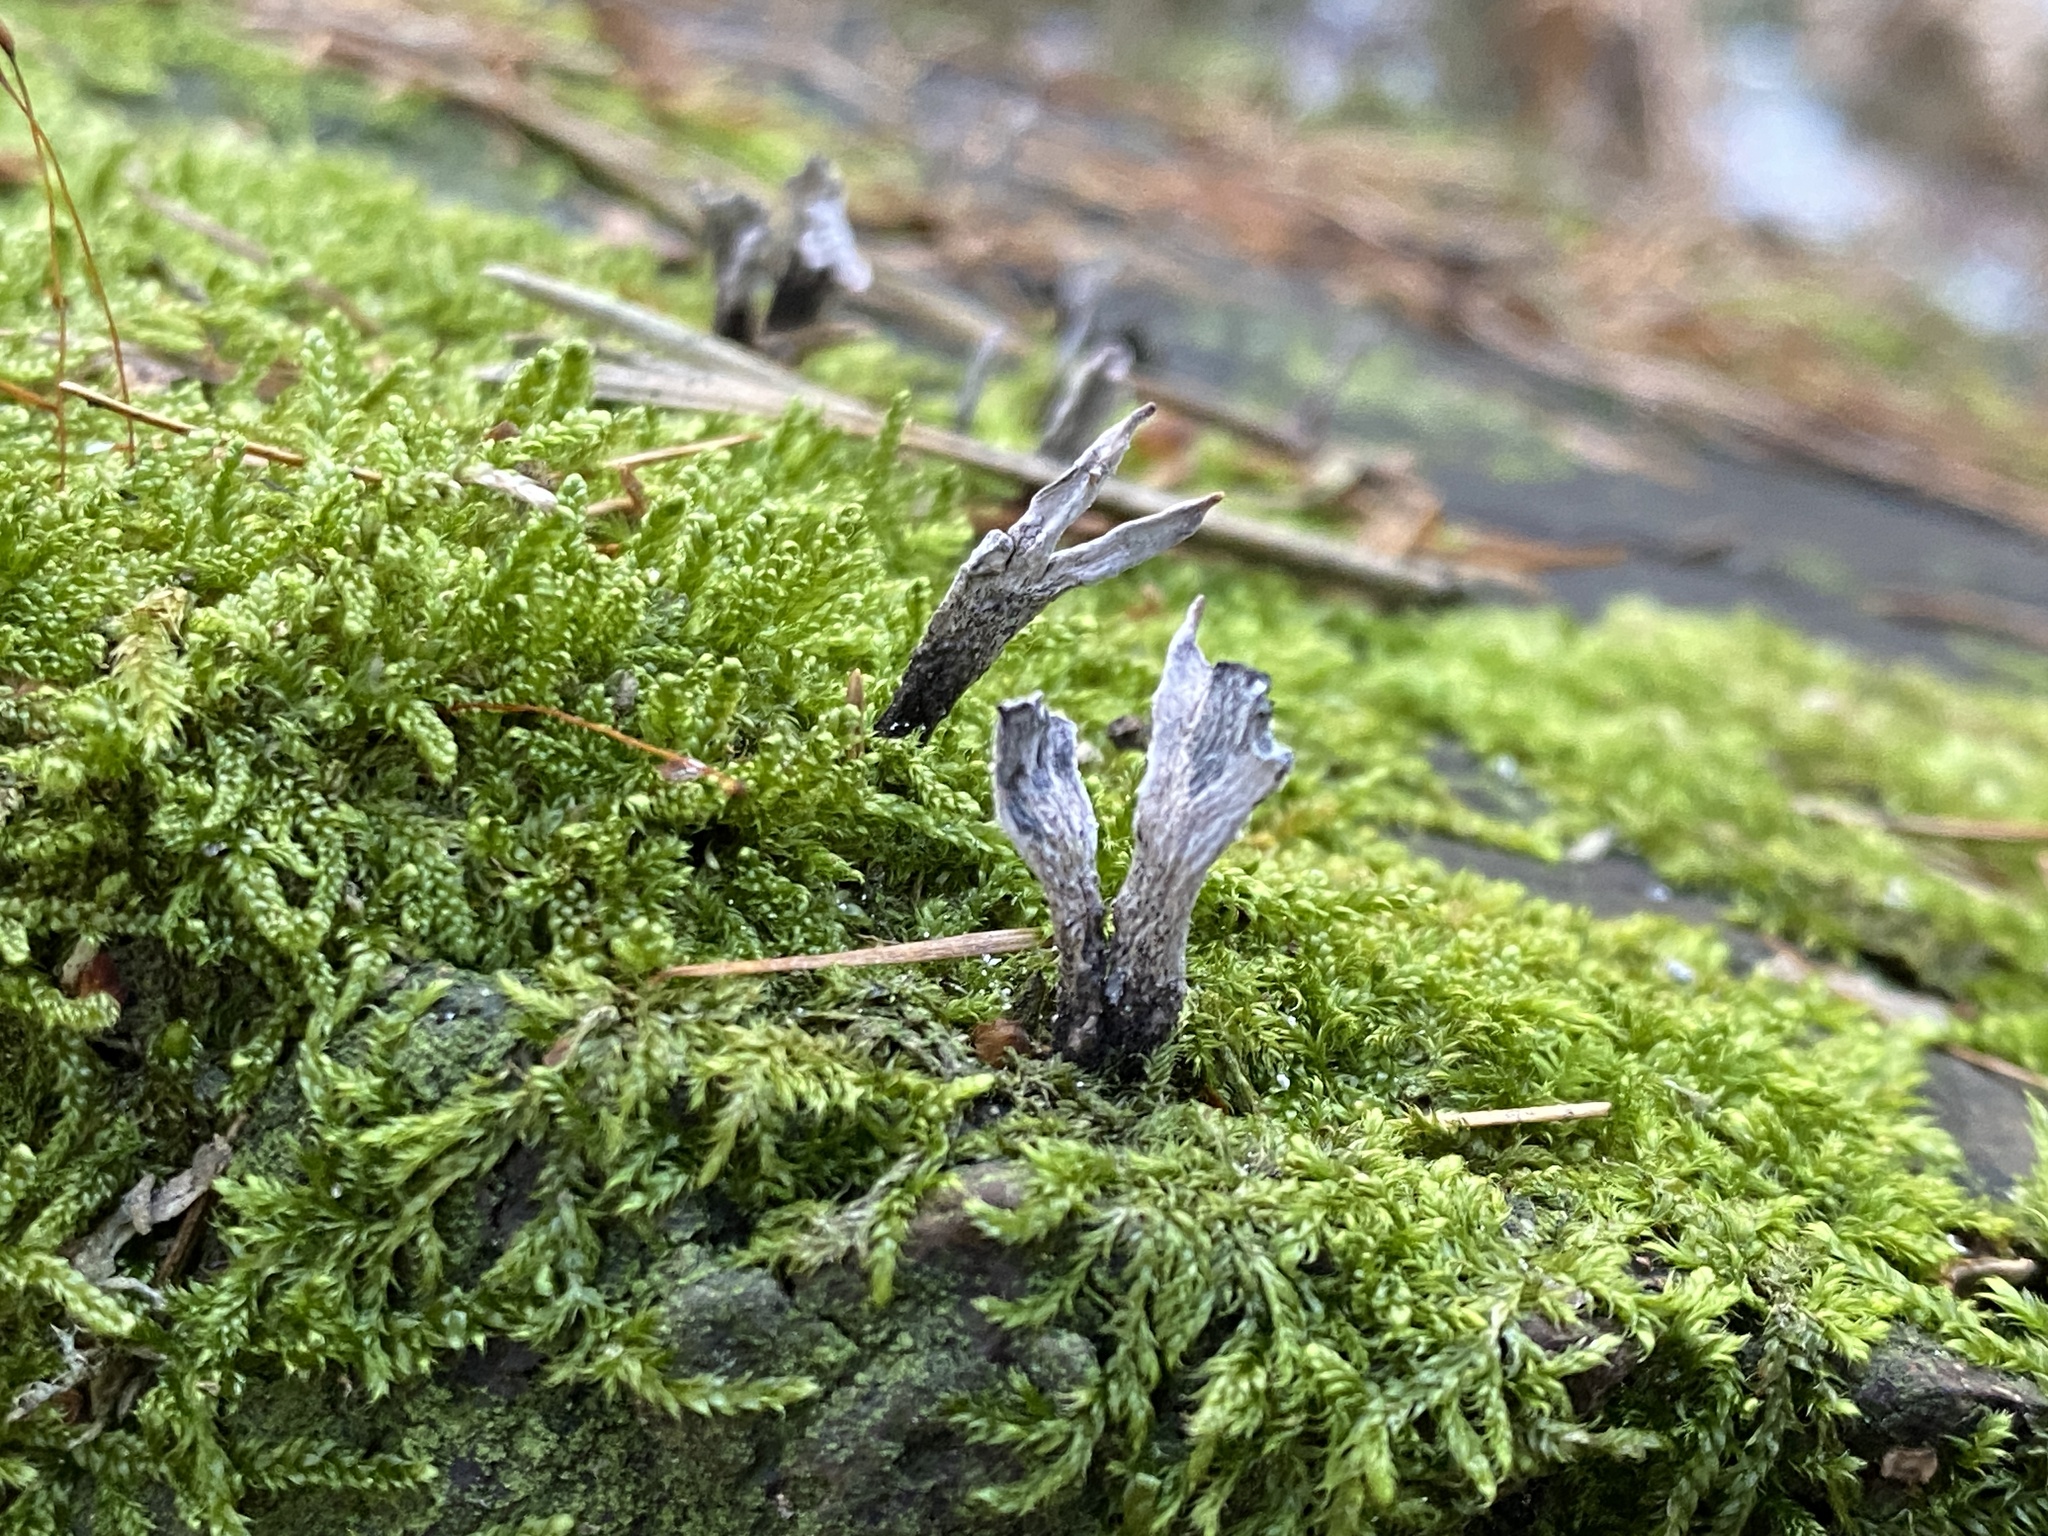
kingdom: Fungi
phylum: Ascomycota
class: Sordariomycetes
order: Xylariales
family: Xylariaceae
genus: Xylaria
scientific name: Xylaria hypoxylon
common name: Candle-snuff fungus
